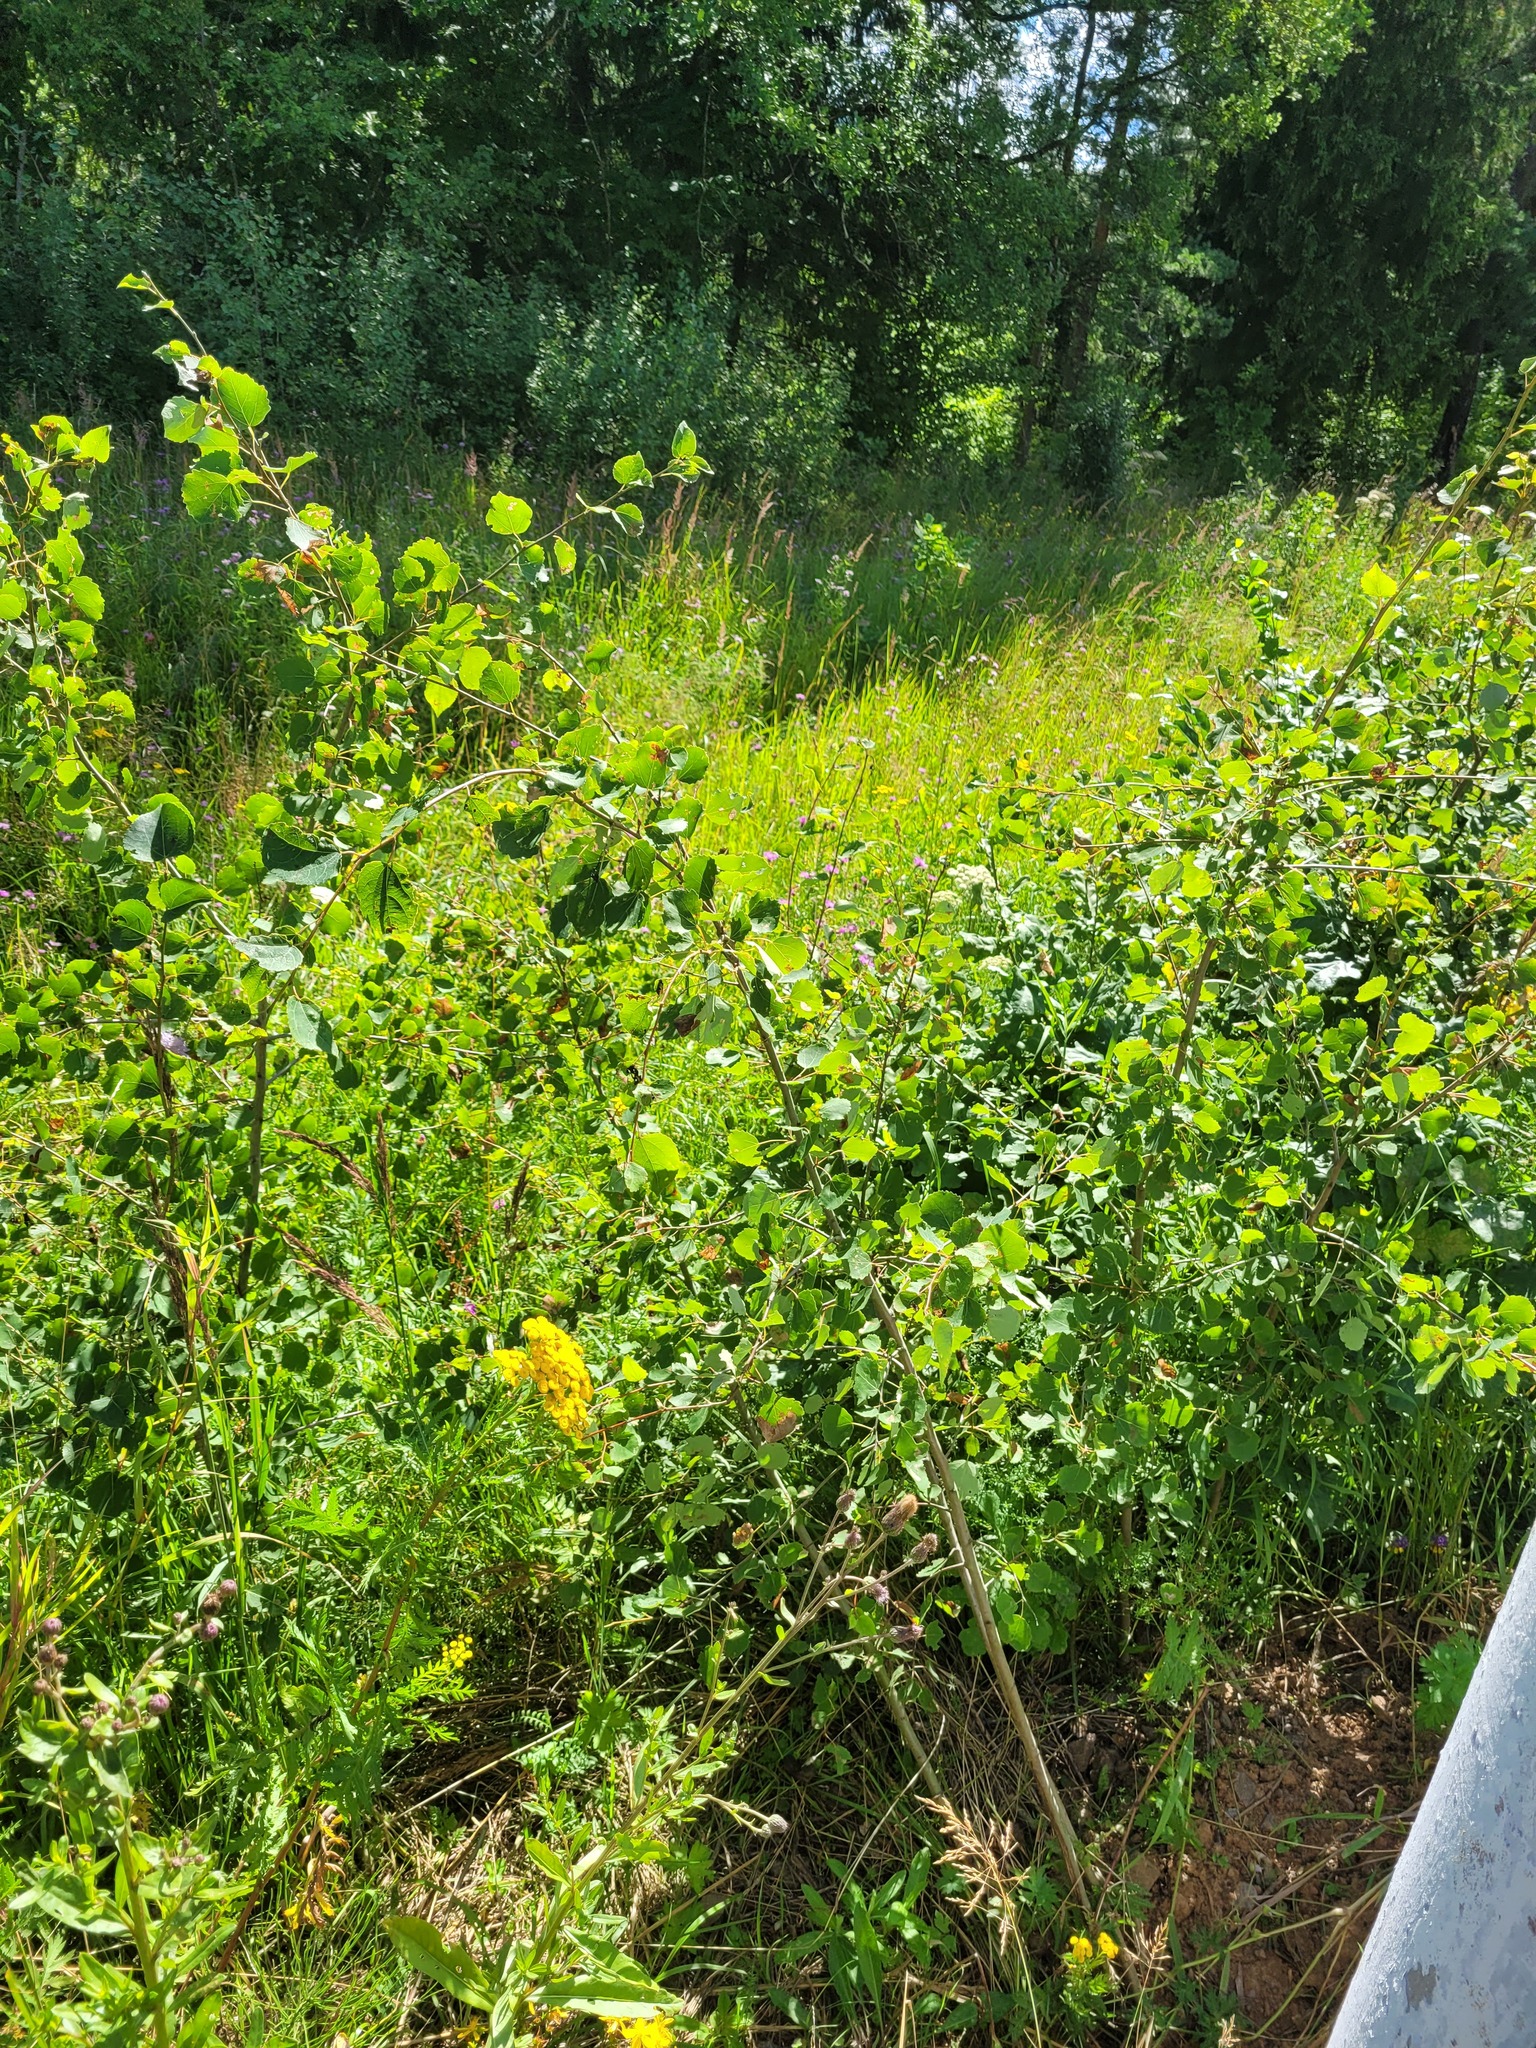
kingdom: Plantae
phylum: Tracheophyta
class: Magnoliopsida
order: Malpighiales
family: Salicaceae
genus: Populus
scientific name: Populus tremula
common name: European aspen
